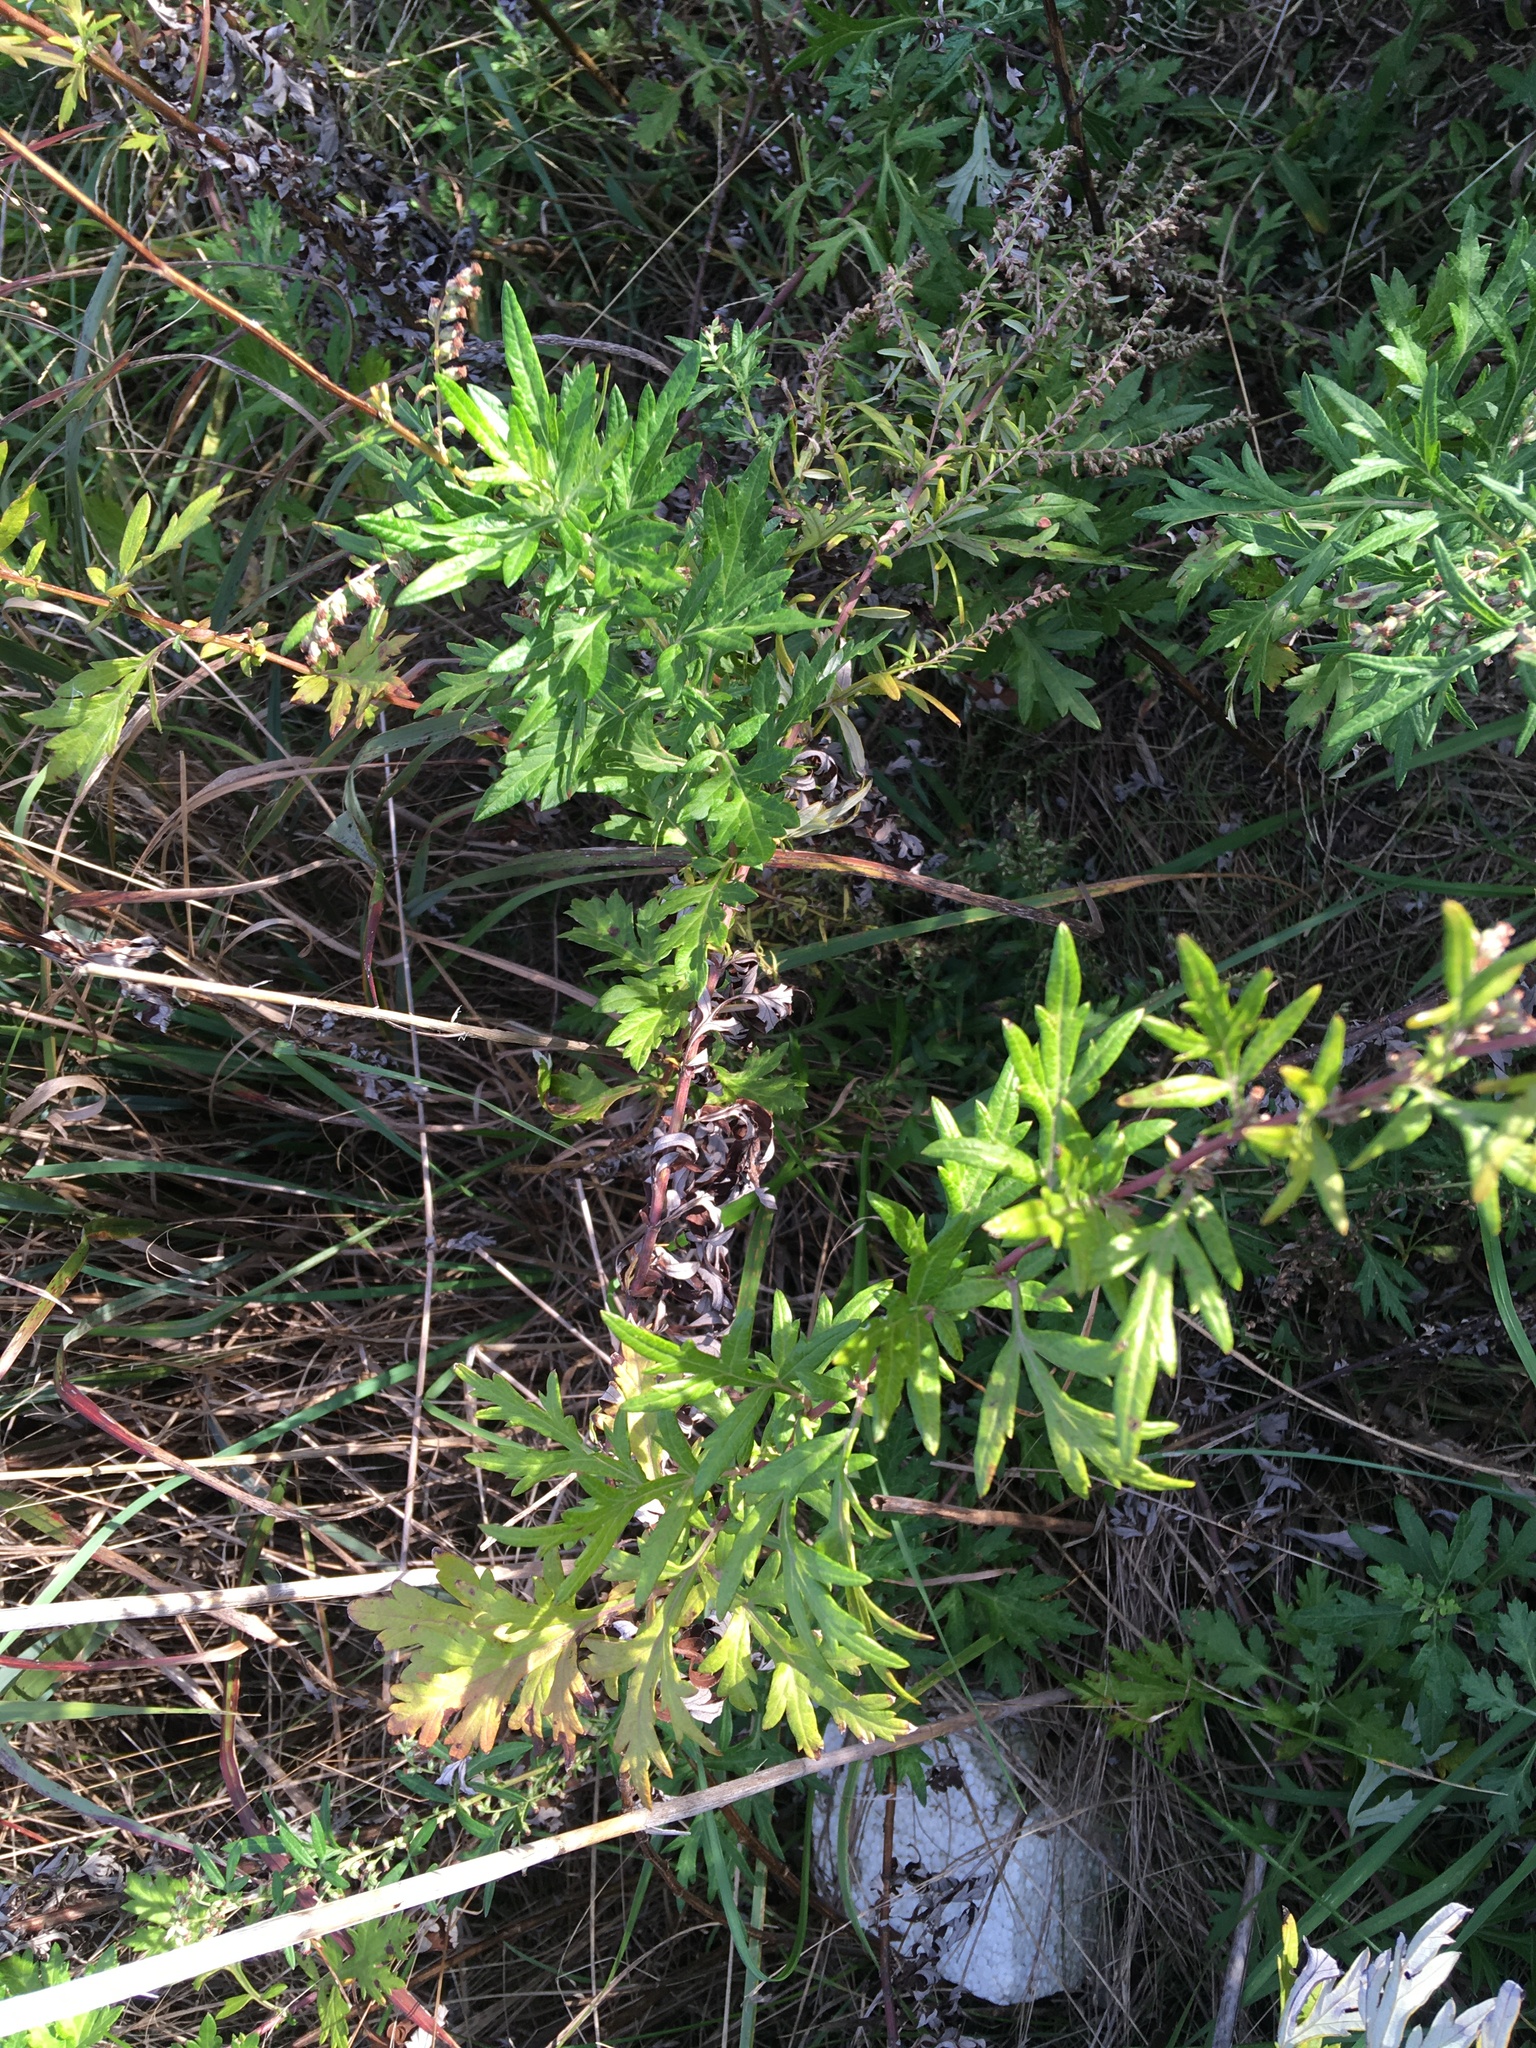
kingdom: Plantae
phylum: Tracheophyta
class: Magnoliopsida
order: Asterales
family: Asteraceae
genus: Artemisia
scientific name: Artemisia vulgaris
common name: Mugwort
